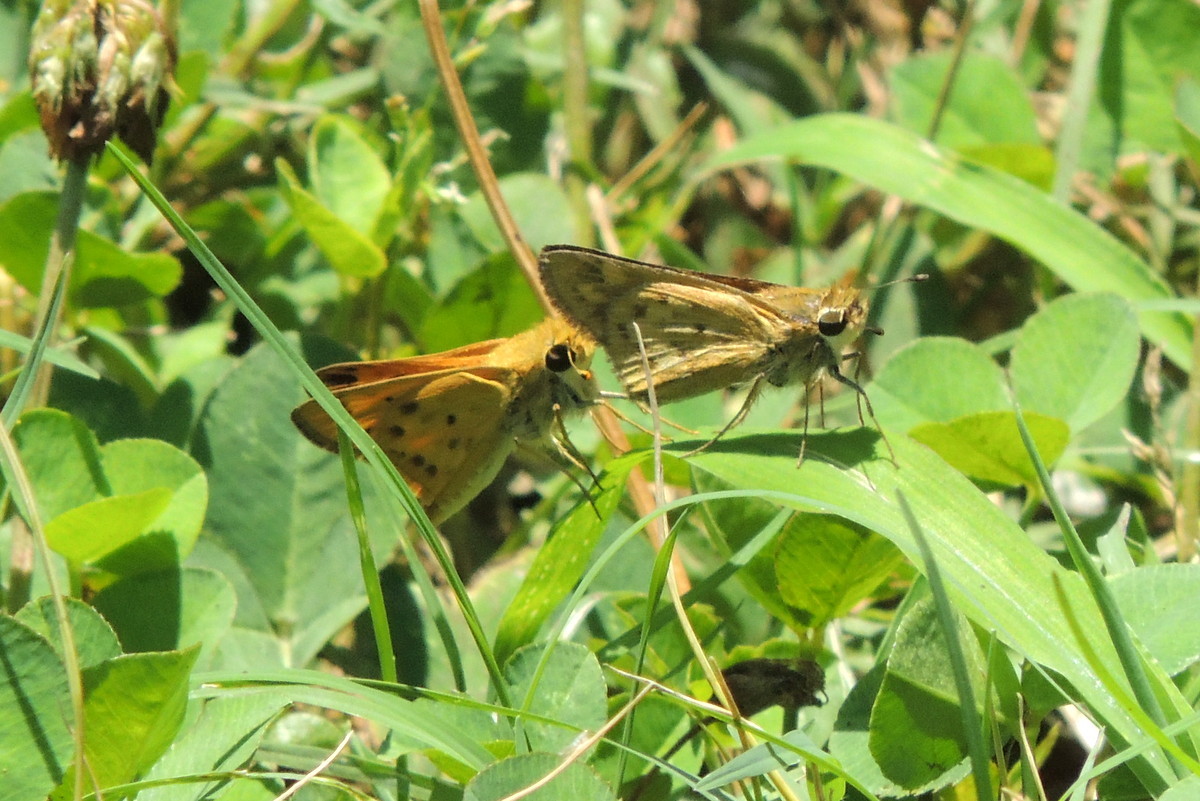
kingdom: Animalia
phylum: Arthropoda
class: Insecta
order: Lepidoptera
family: Hesperiidae
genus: Hylephila
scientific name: Hylephila phyleus
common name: Fiery skipper
